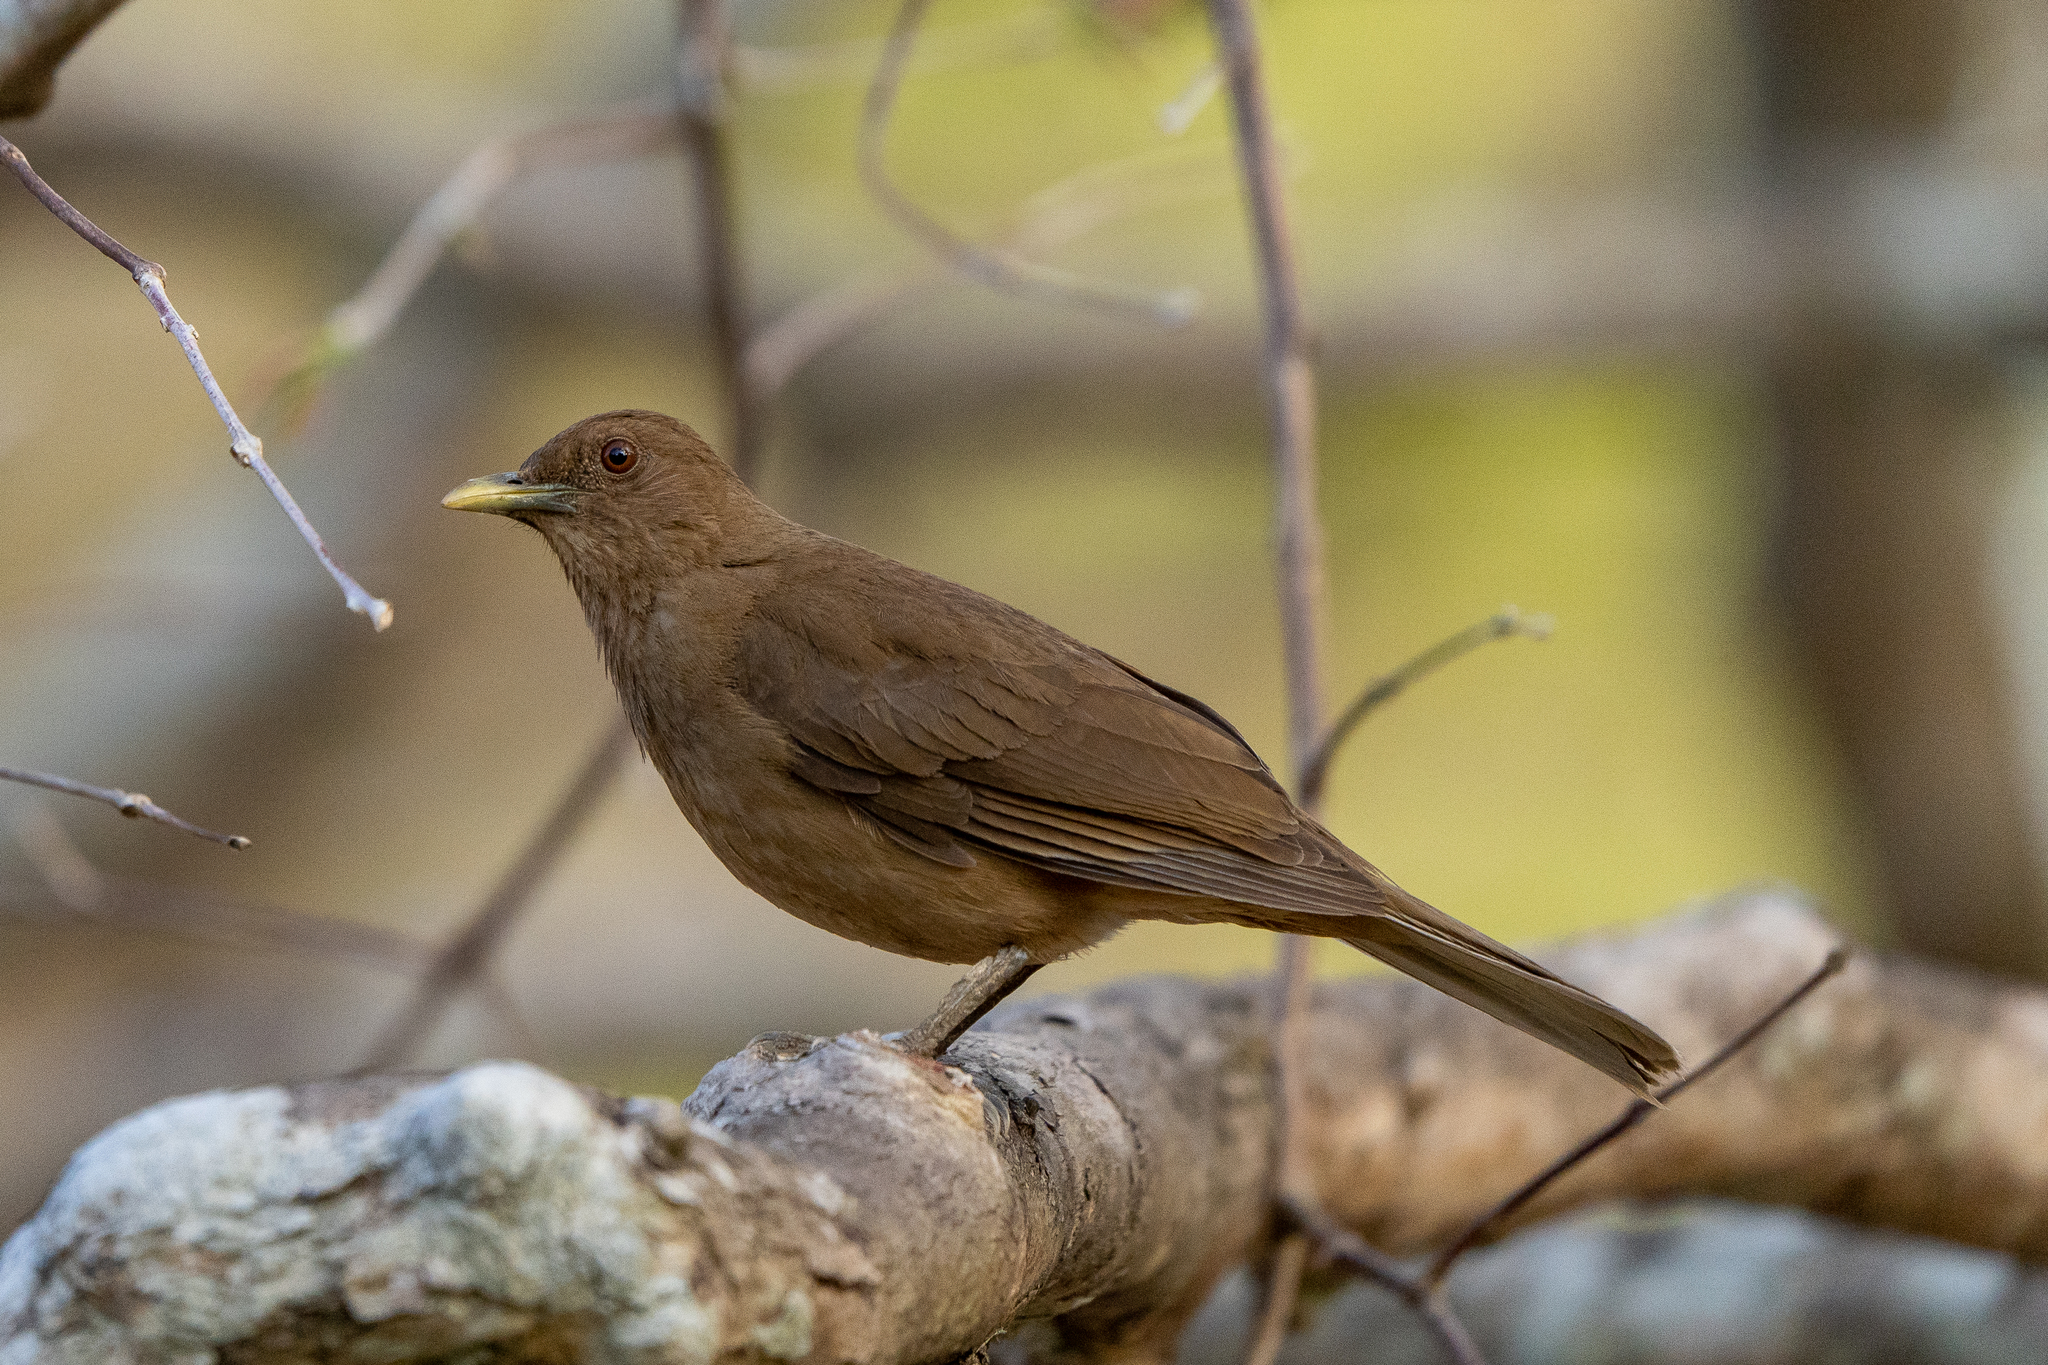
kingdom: Animalia
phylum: Chordata
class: Aves
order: Passeriformes
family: Turdidae
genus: Turdus
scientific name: Turdus grayi
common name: Clay-colored thrush
